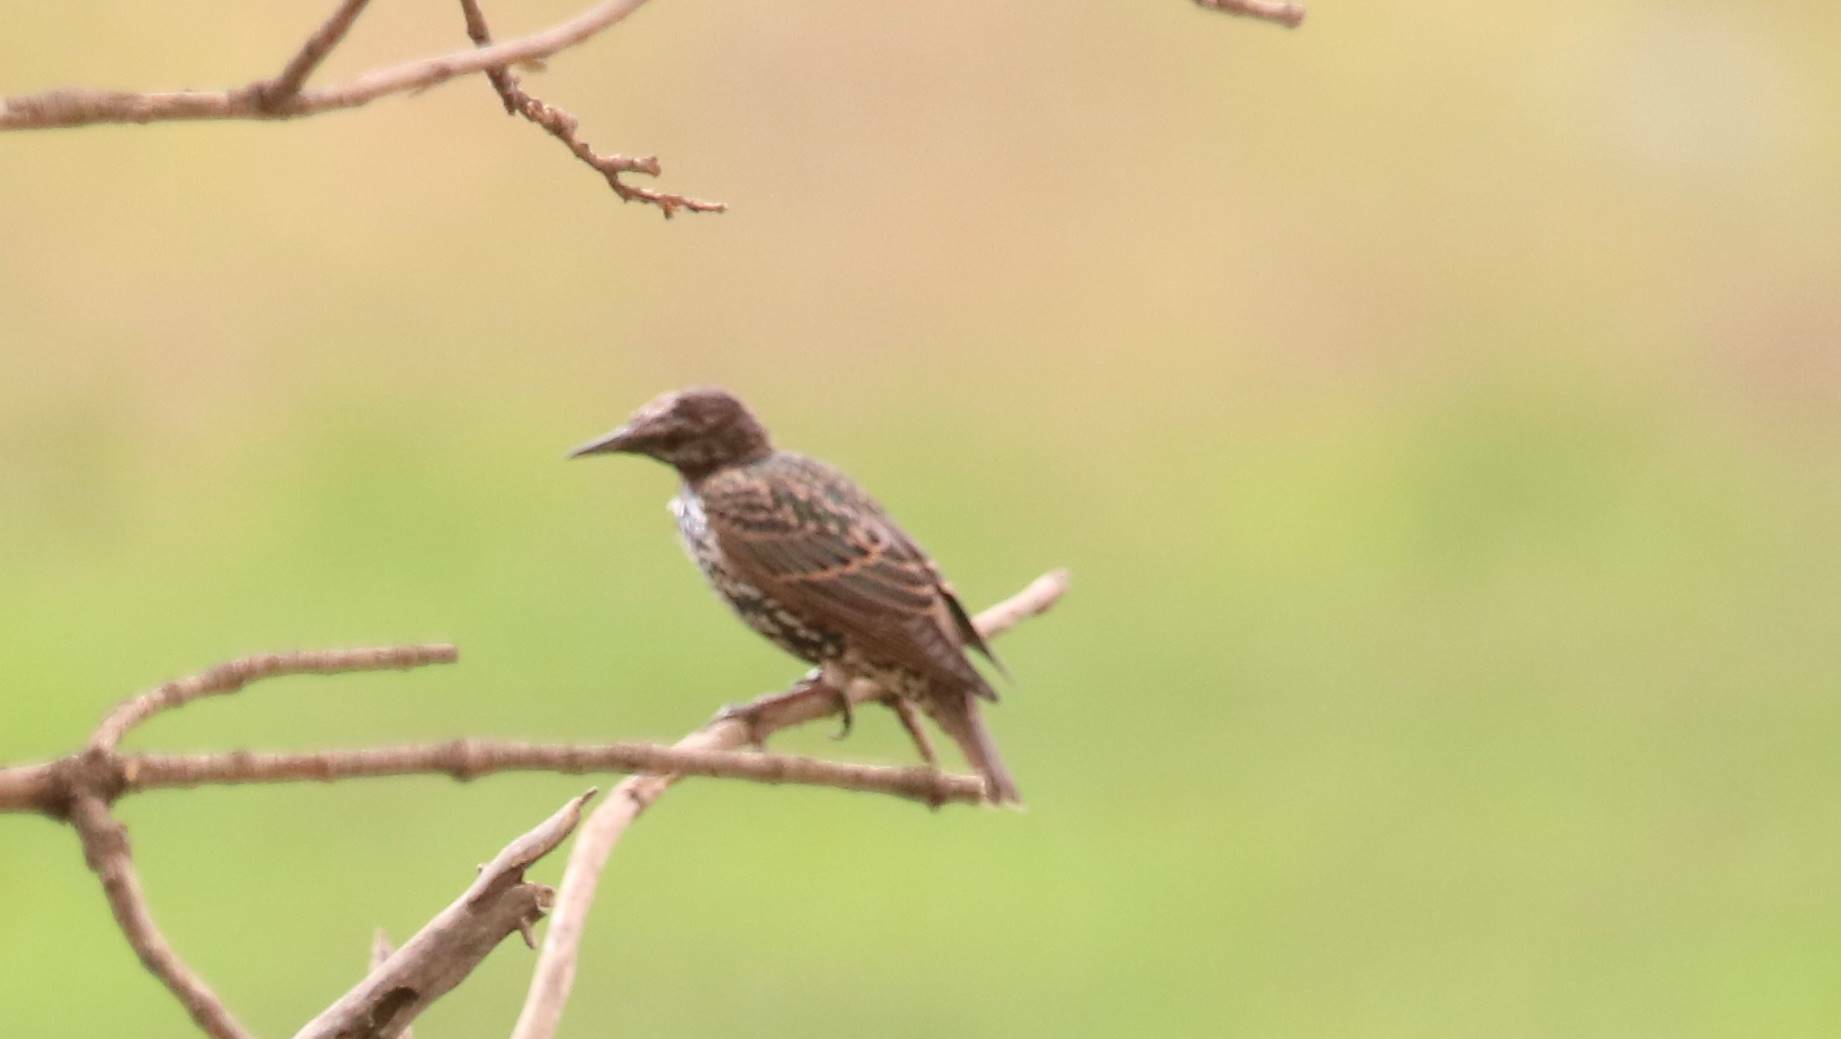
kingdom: Animalia
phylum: Chordata
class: Aves
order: Passeriformes
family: Sturnidae
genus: Sturnus
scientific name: Sturnus vulgaris
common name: Common starling
